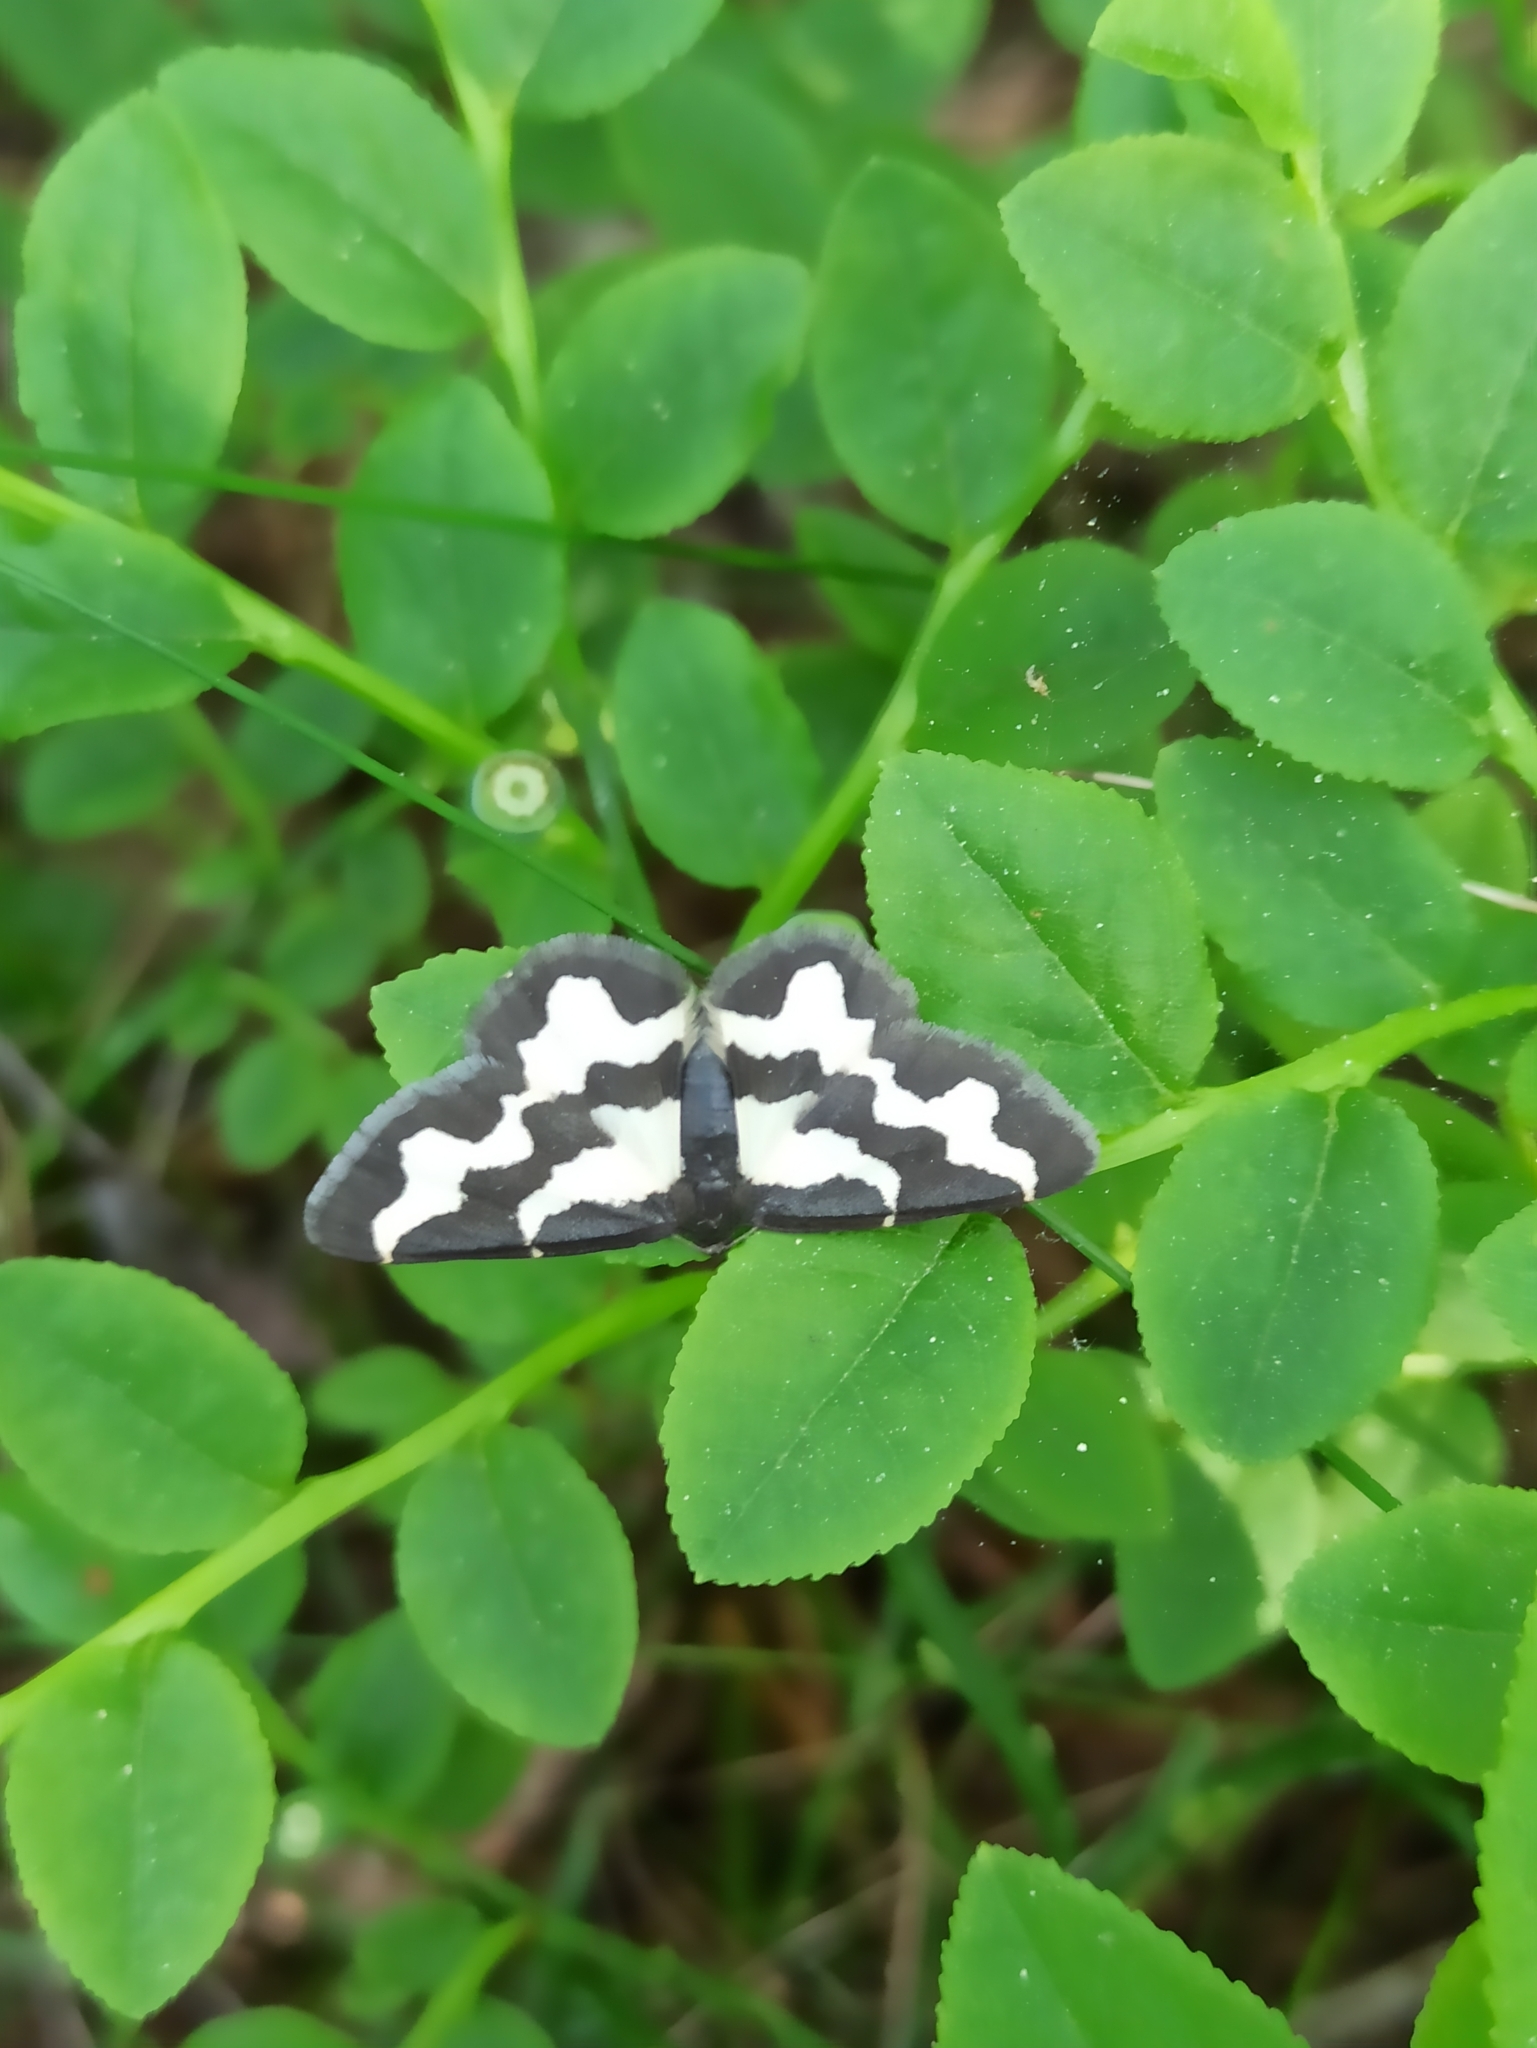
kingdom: Animalia
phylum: Arthropoda
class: Insecta
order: Lepidoptera
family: Geometridae
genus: Lomaspilis
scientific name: Lomaspilis marginata
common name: Clouded border
